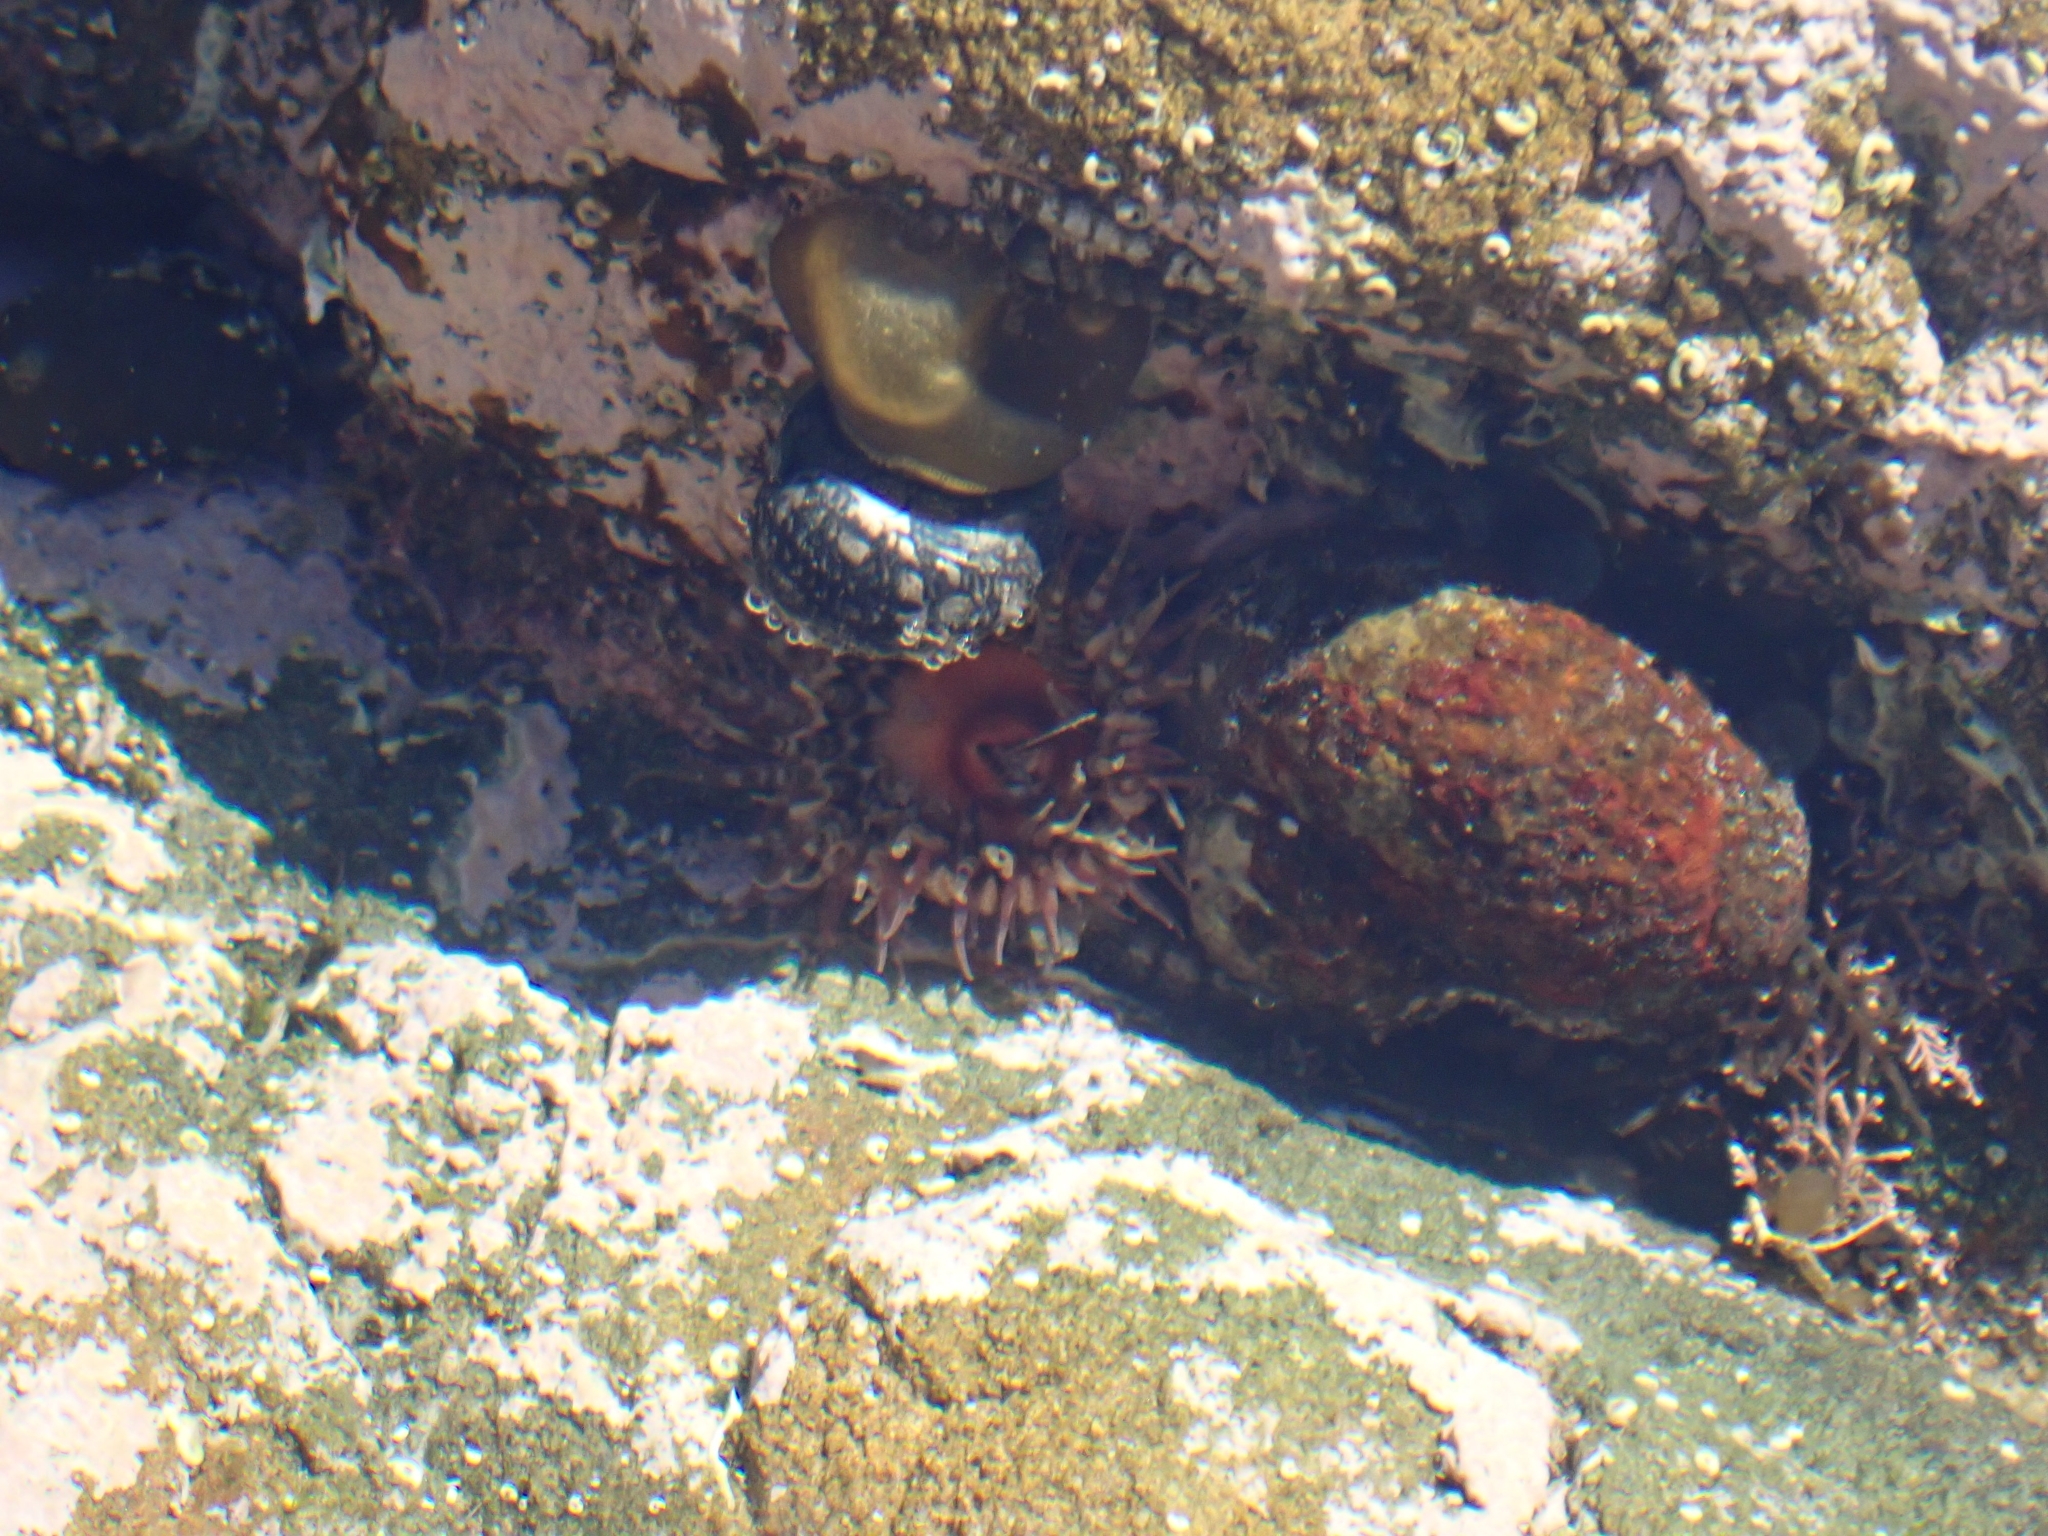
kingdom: Animalia
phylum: Cnidaria
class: Anthozoa
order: Actiniaria
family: Actiniidae
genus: Oulactis
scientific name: Oulactis muscosa
